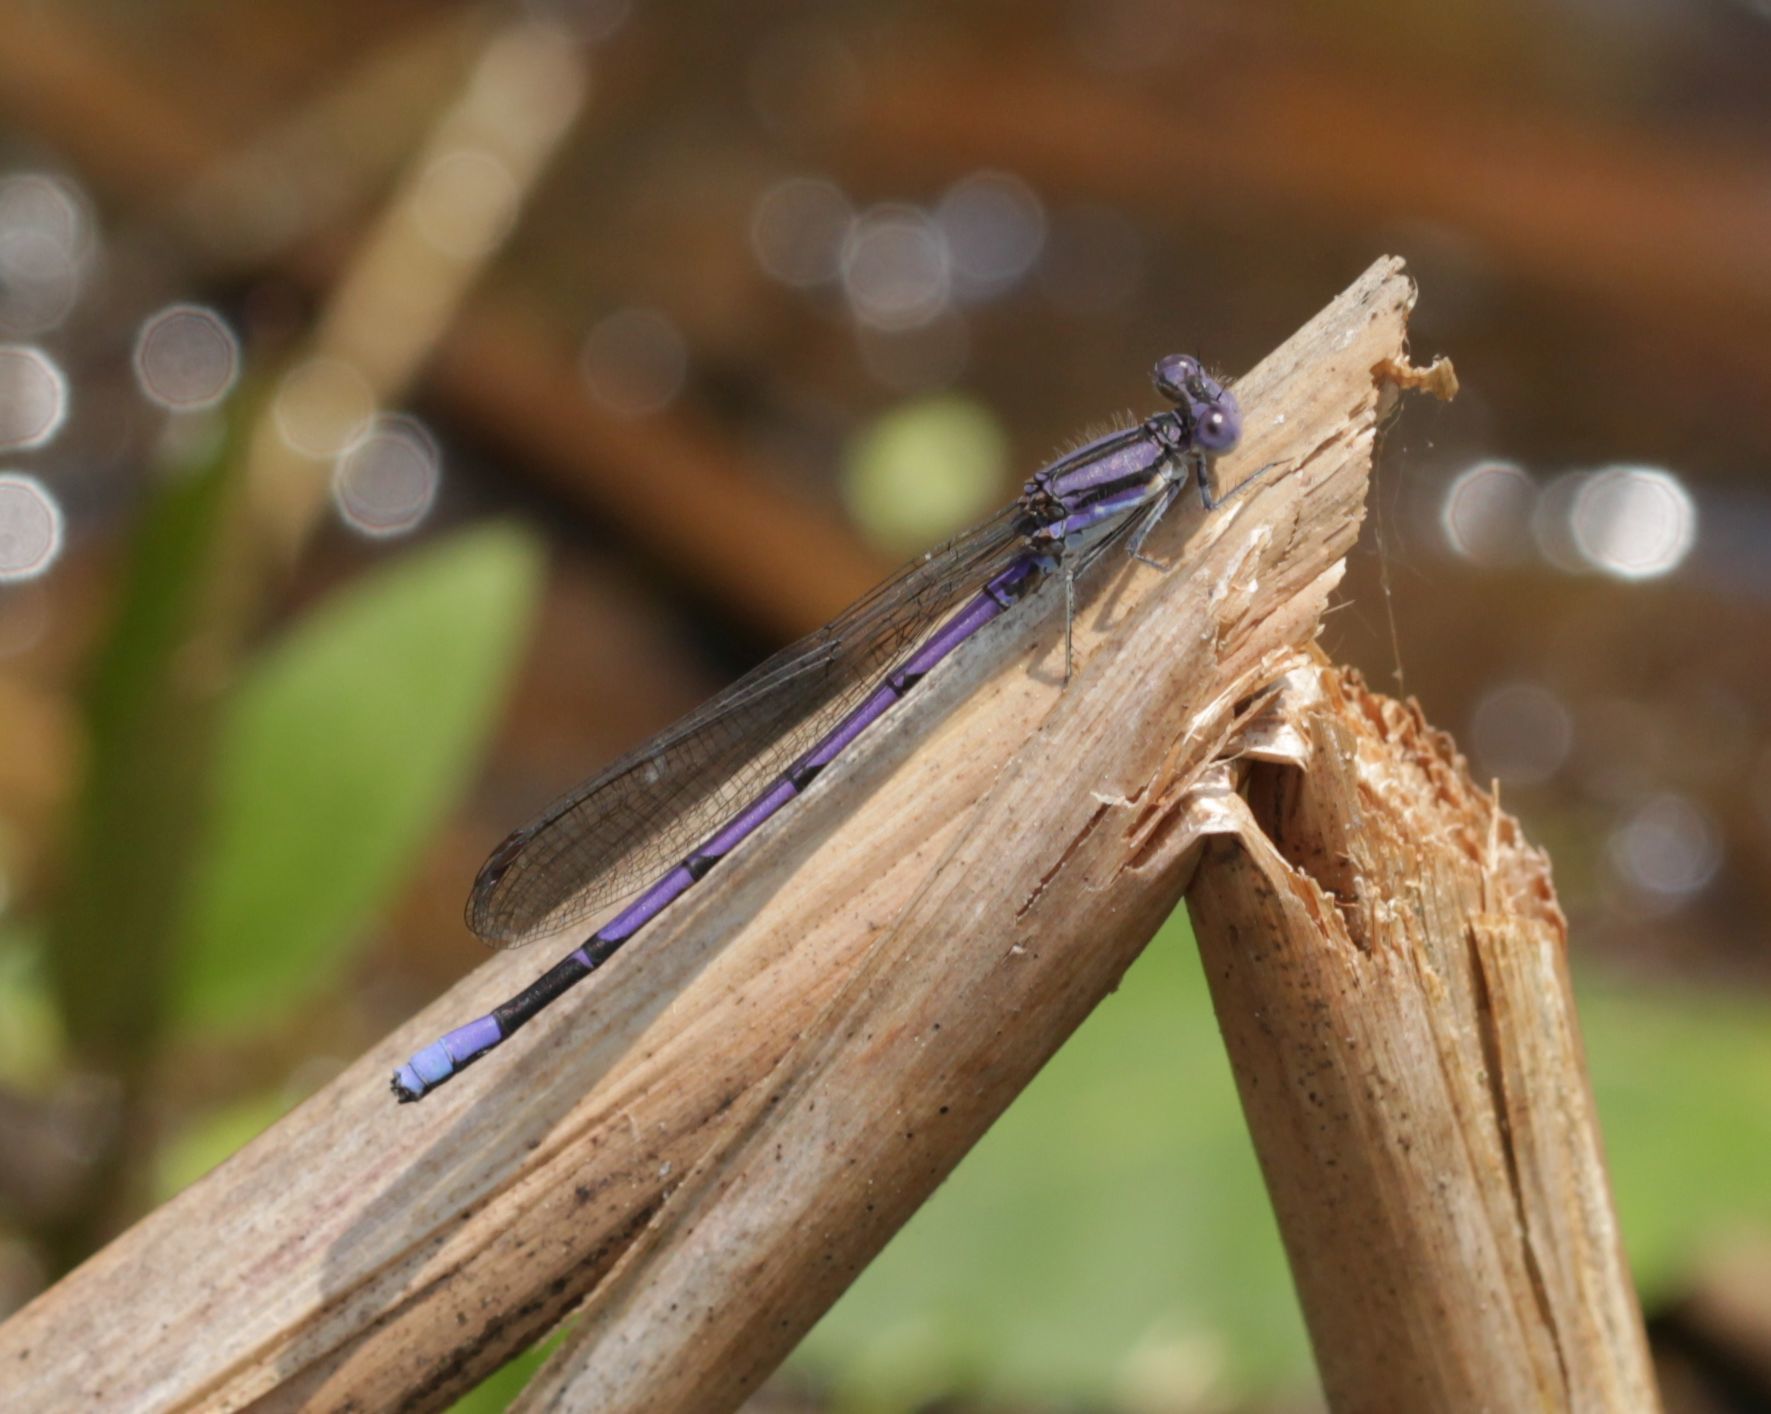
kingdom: Animalia
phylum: Arthropoda
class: Insecta
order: Odonata
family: Coenagrionidae
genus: Argia
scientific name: Argia fumipennis
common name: Variable dancer
